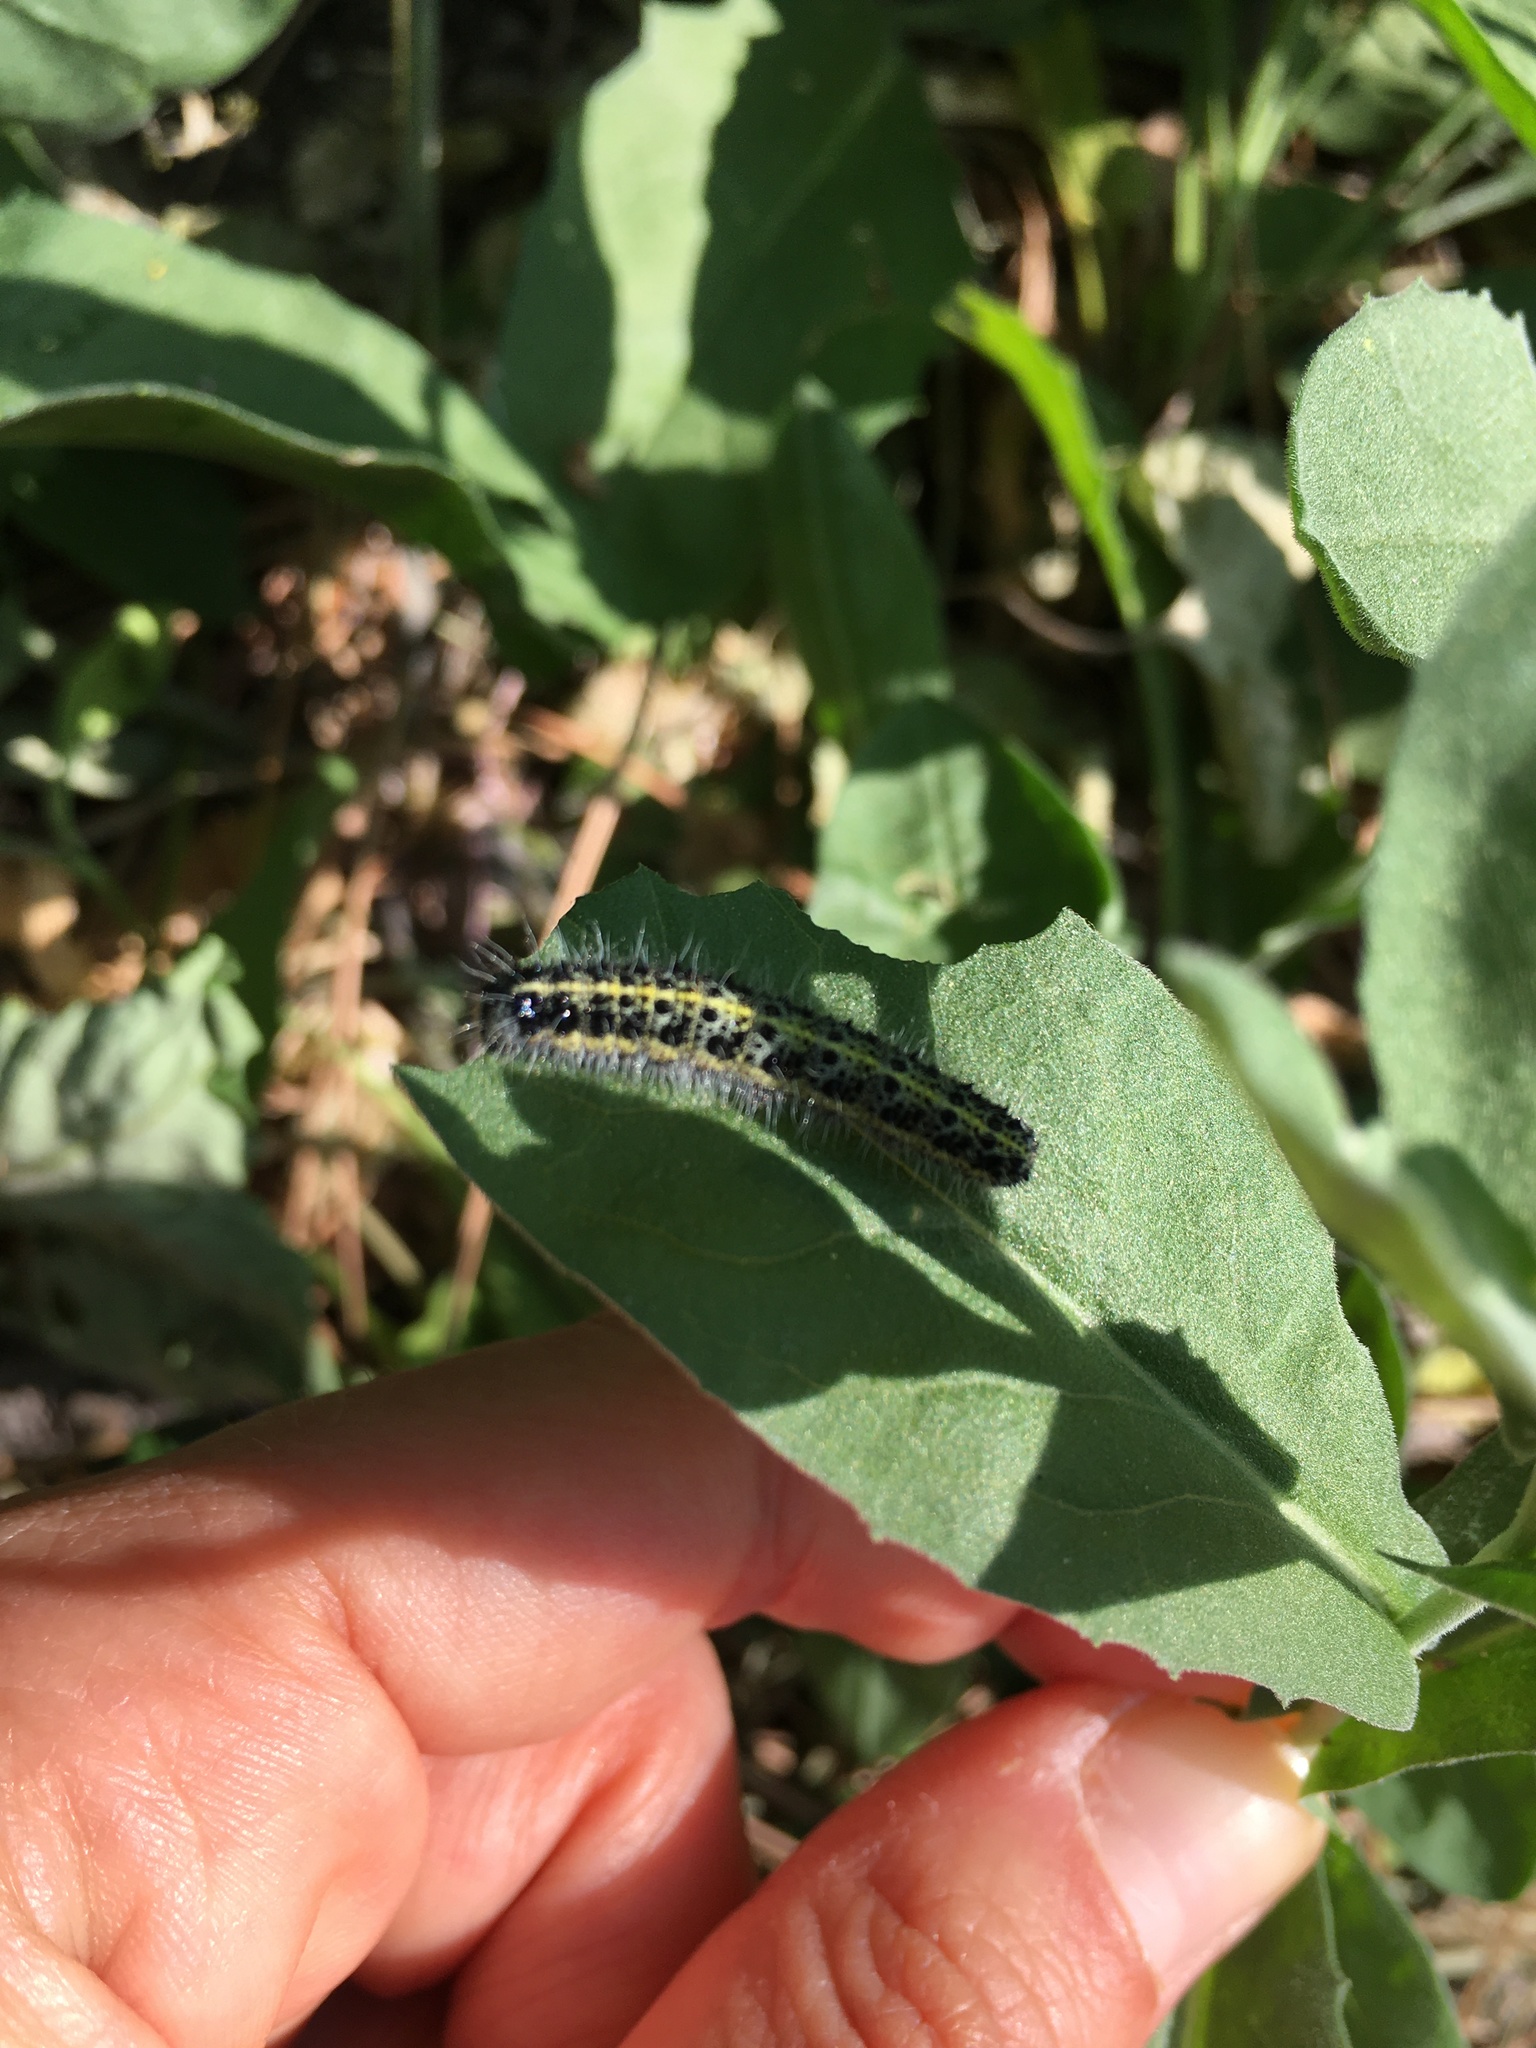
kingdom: Animalia
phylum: Arthropoda
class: Insecta
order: Lepidoptera
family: Pieridae
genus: Pieris
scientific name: Pieris brassicae
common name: Large white
